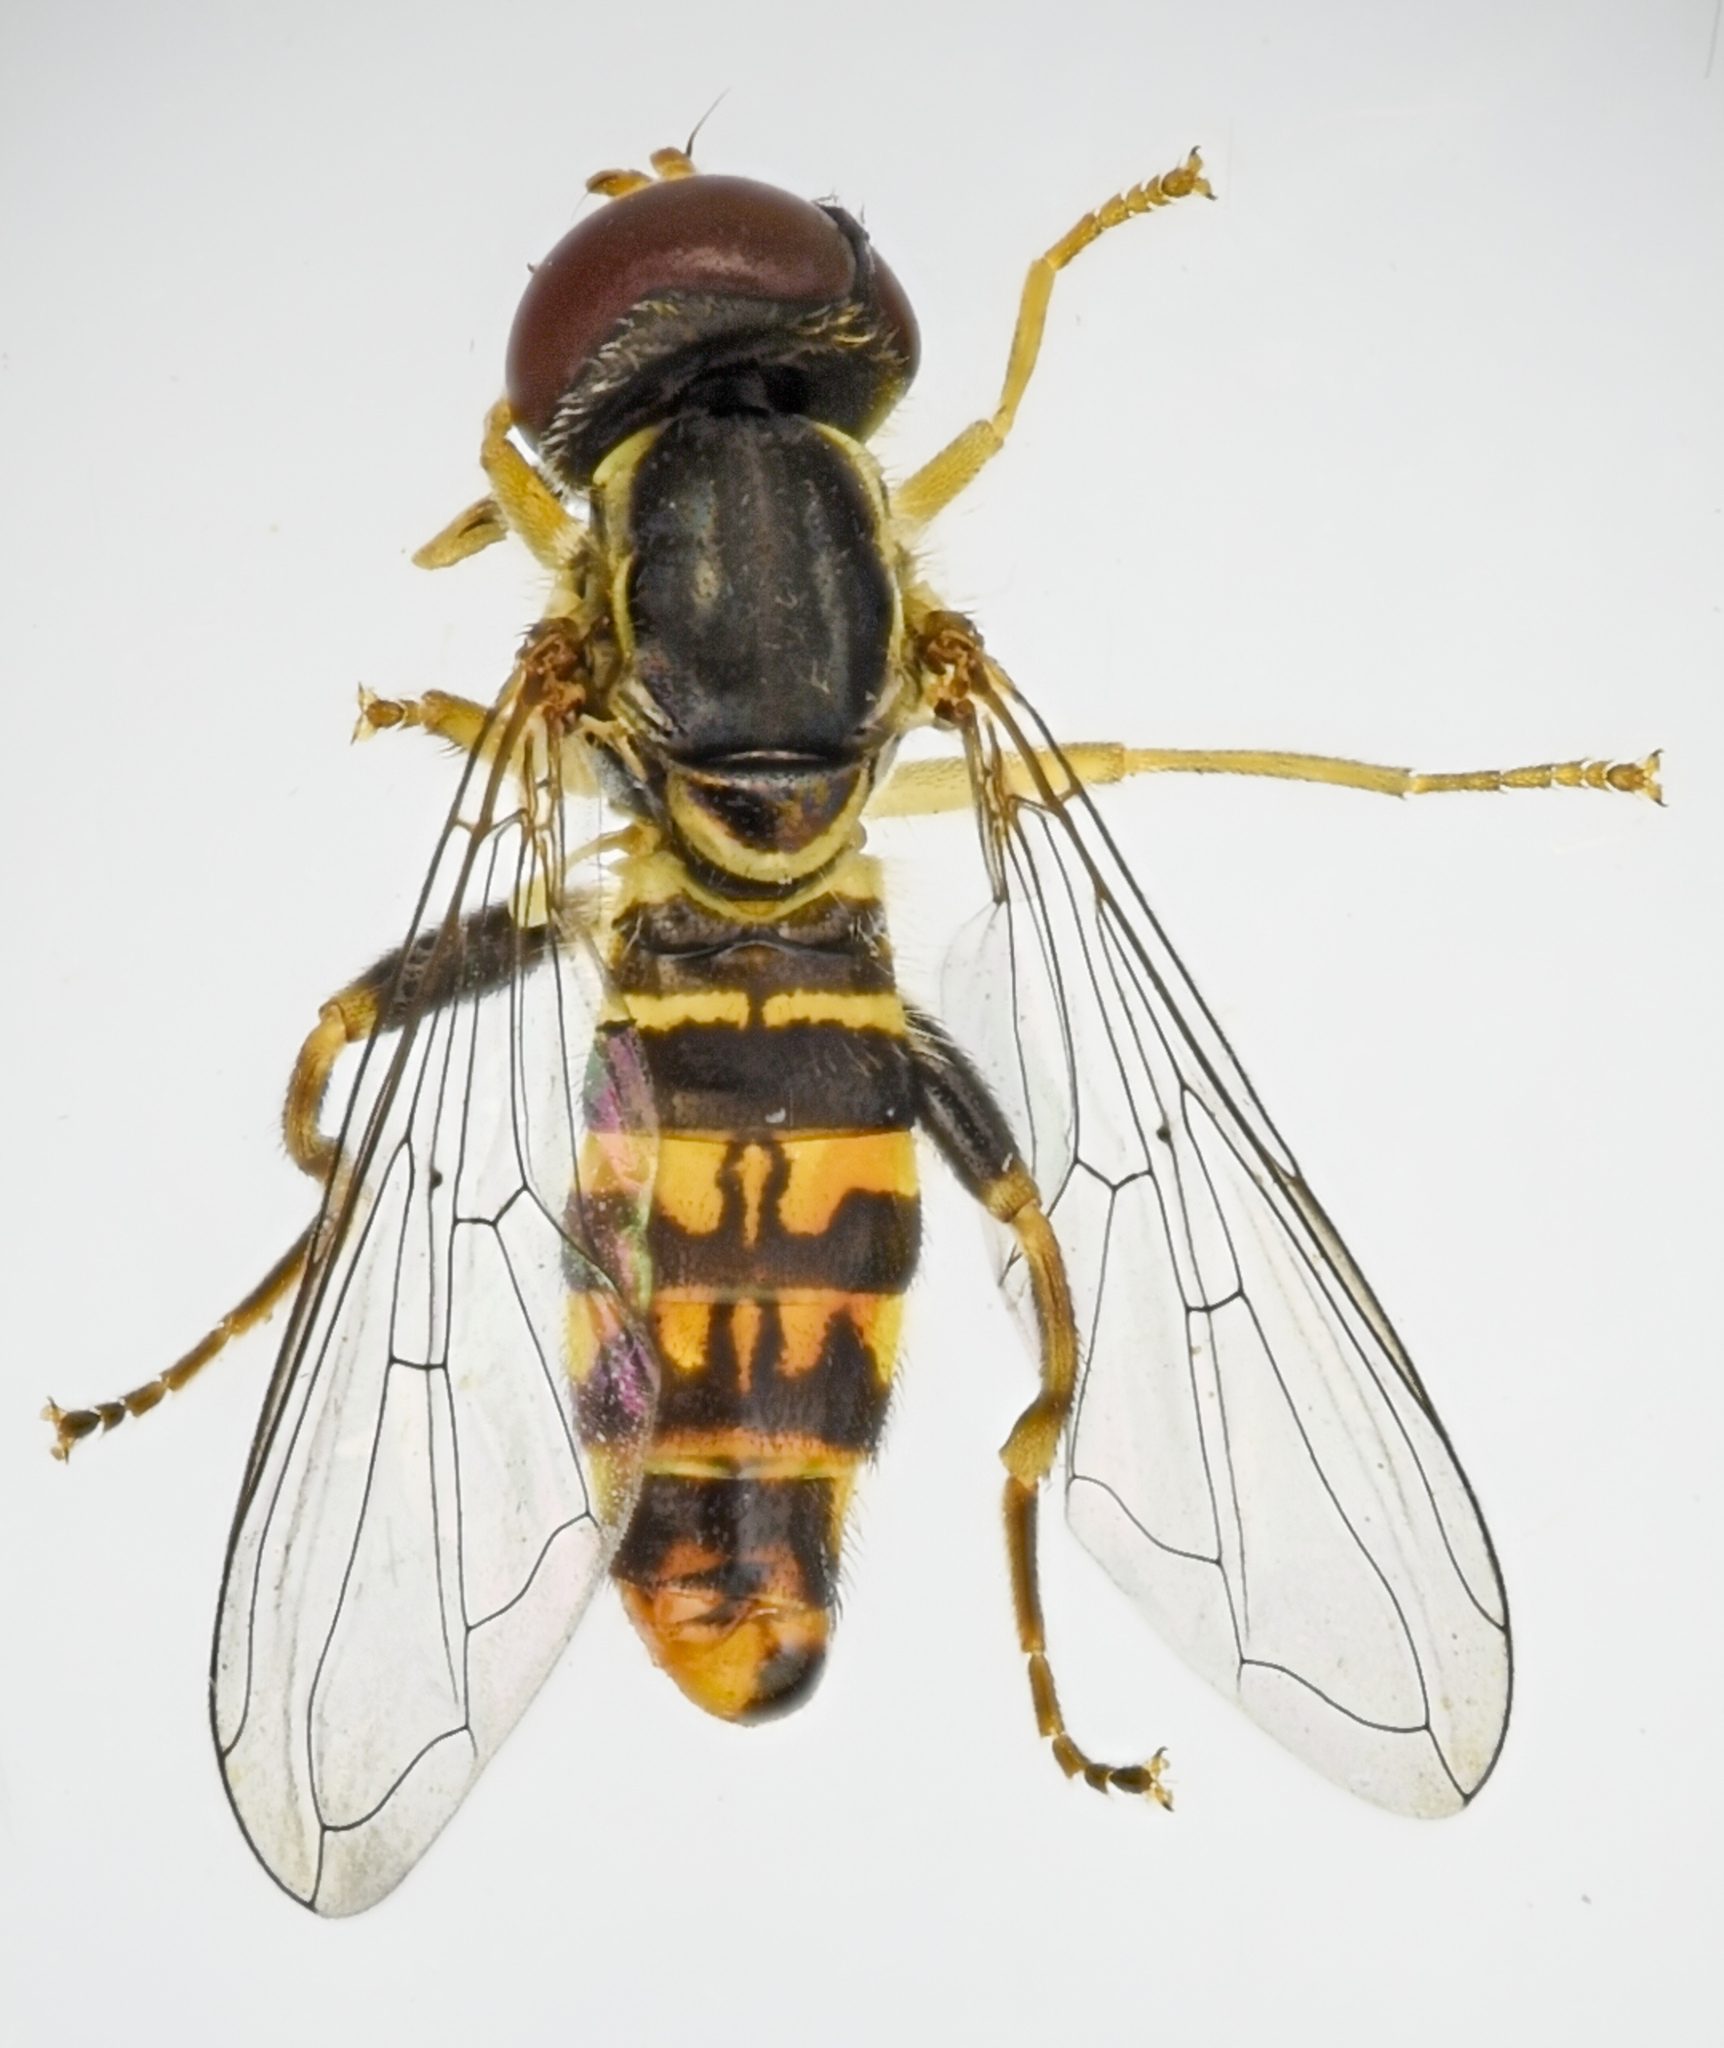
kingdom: Animalia
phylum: Arthropoda
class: Insecta
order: Diptera
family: Syrphidae
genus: Toxomerus
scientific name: Toxomerus occidentalis
